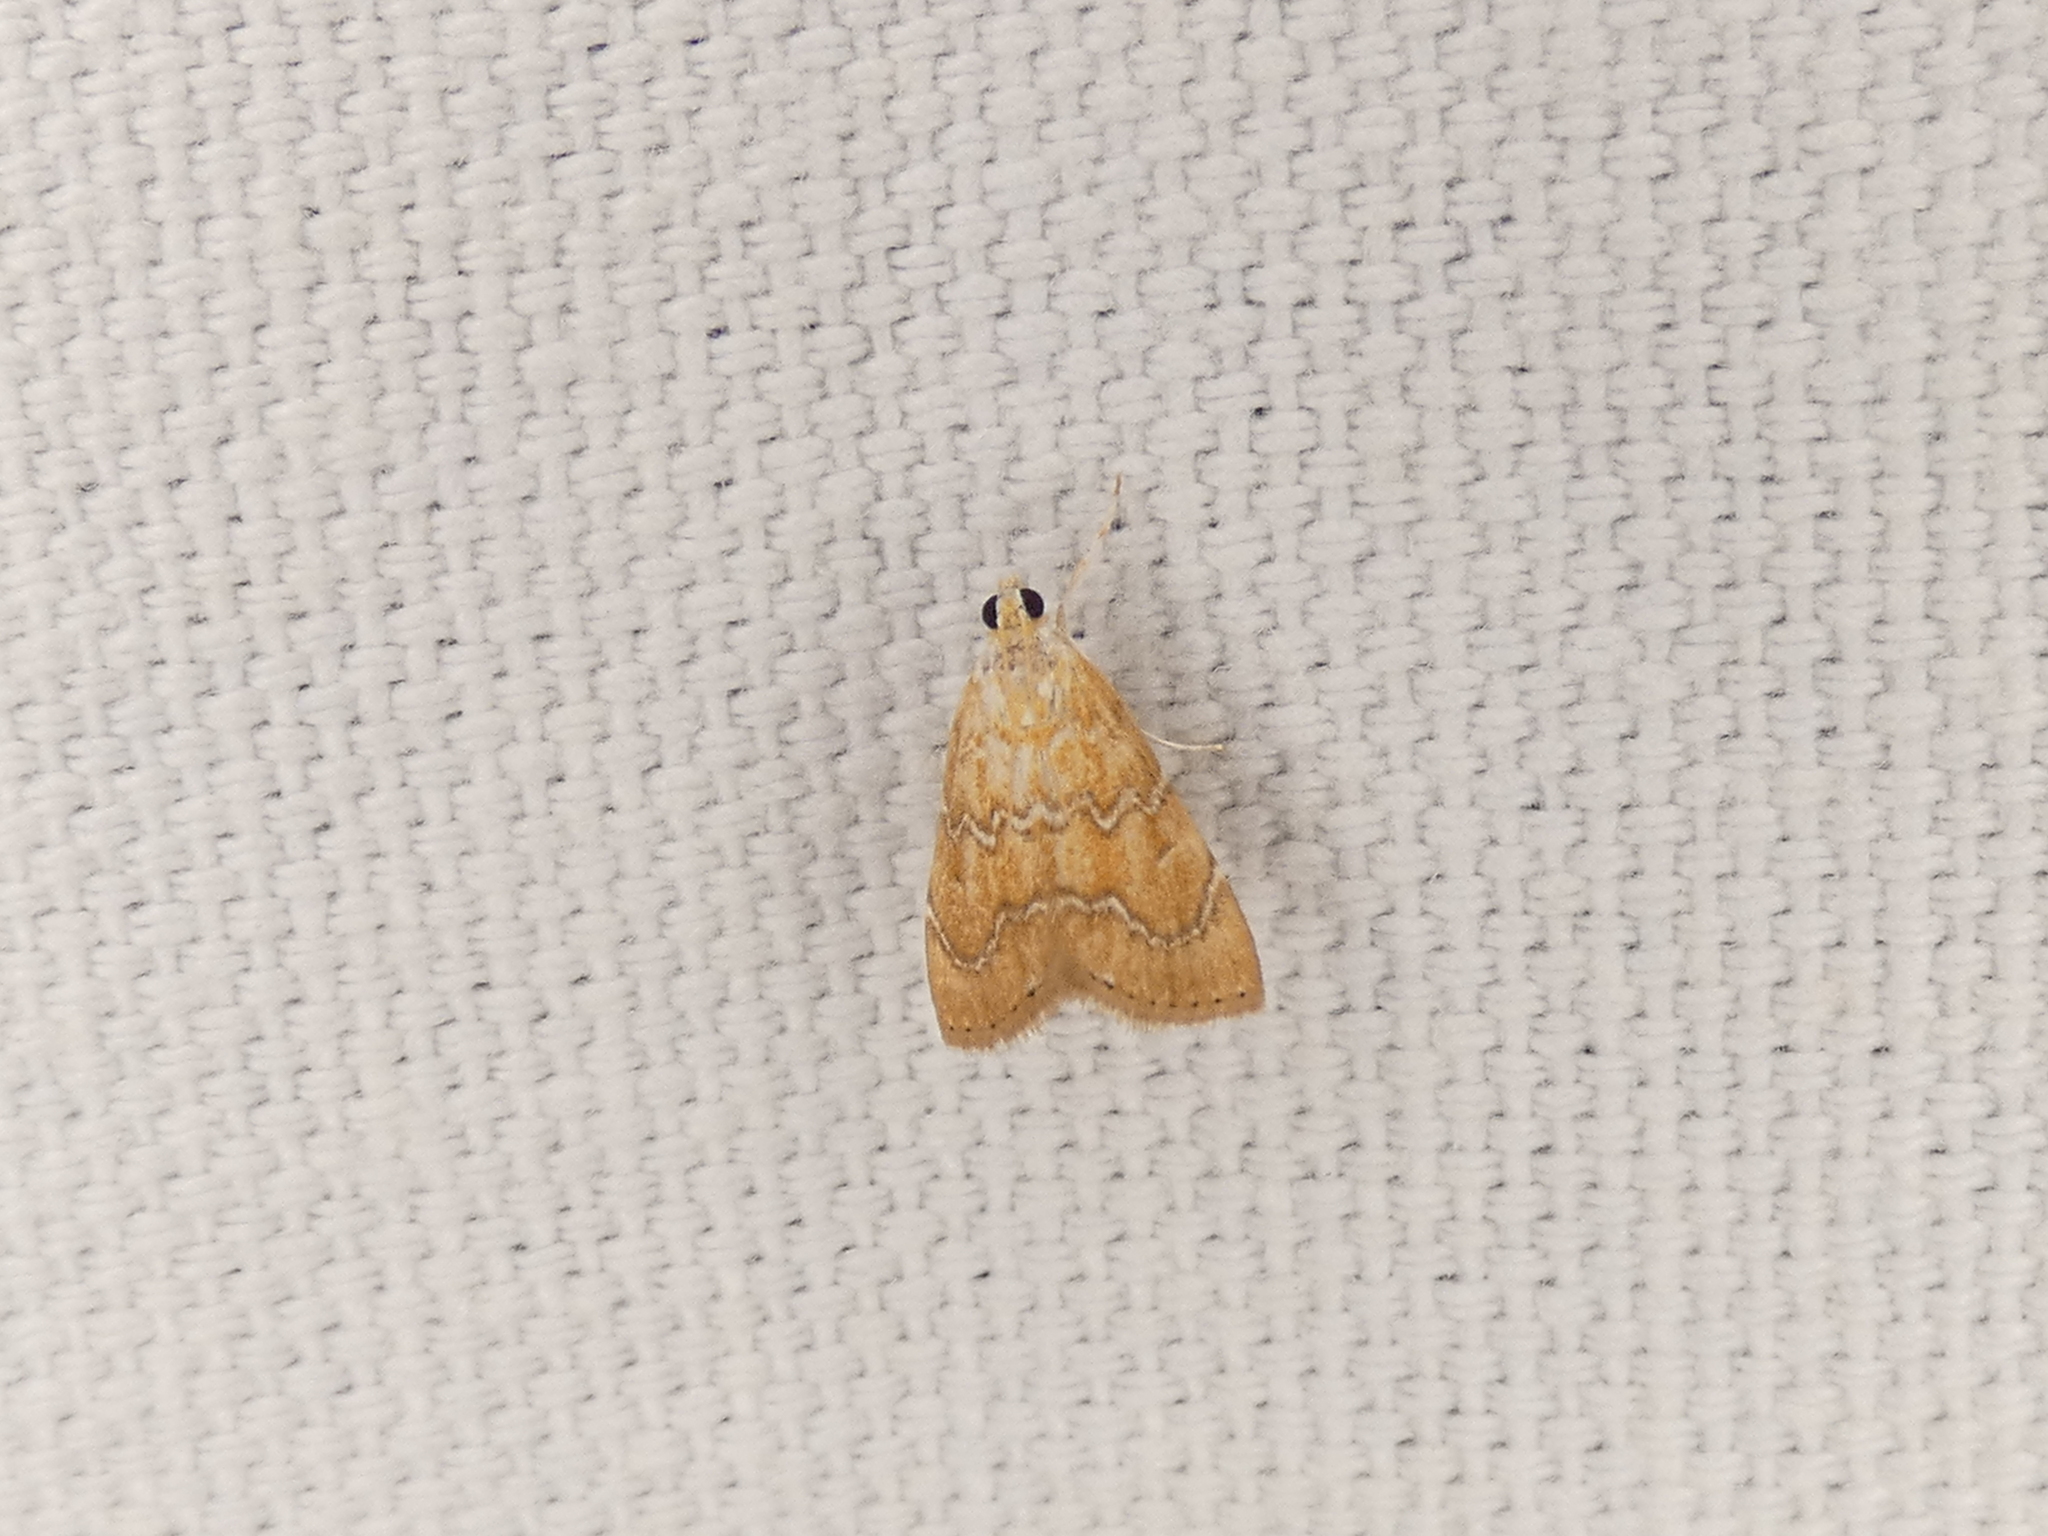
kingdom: Animalia
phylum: Arthropoda
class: Insecta
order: Lepidoptera
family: Crambidae
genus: Glaphyria
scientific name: Glaphyria sesquistrialis
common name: White-roped glaphyria
